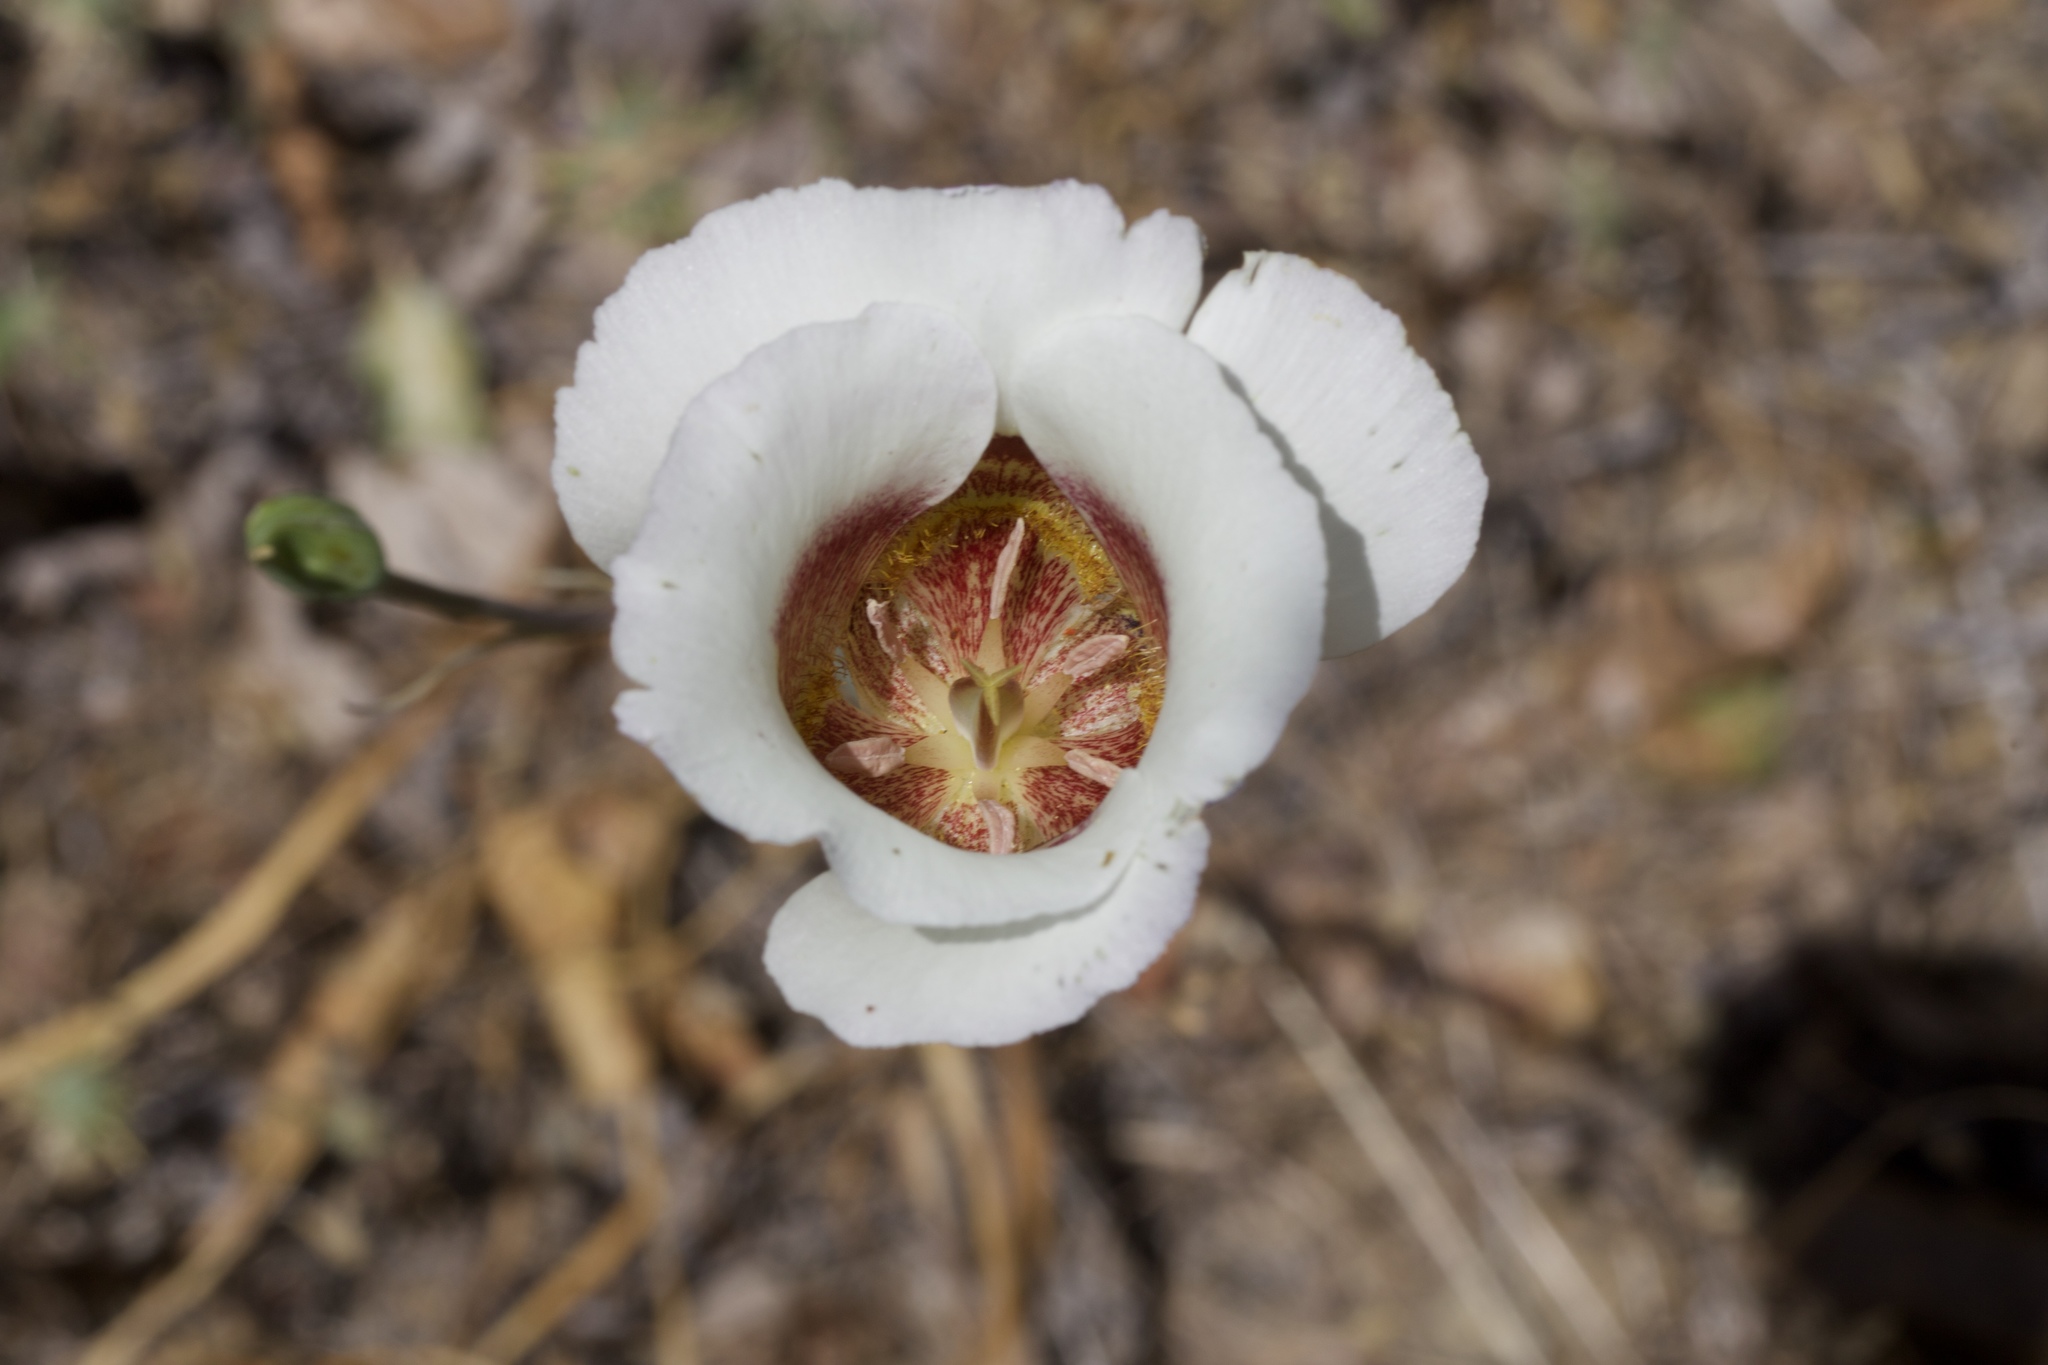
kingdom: Plantae
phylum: Tracheophyta
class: Liliopsida
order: Liliales
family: Liliaceae
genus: Calochortus
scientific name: Calochortus vestae
